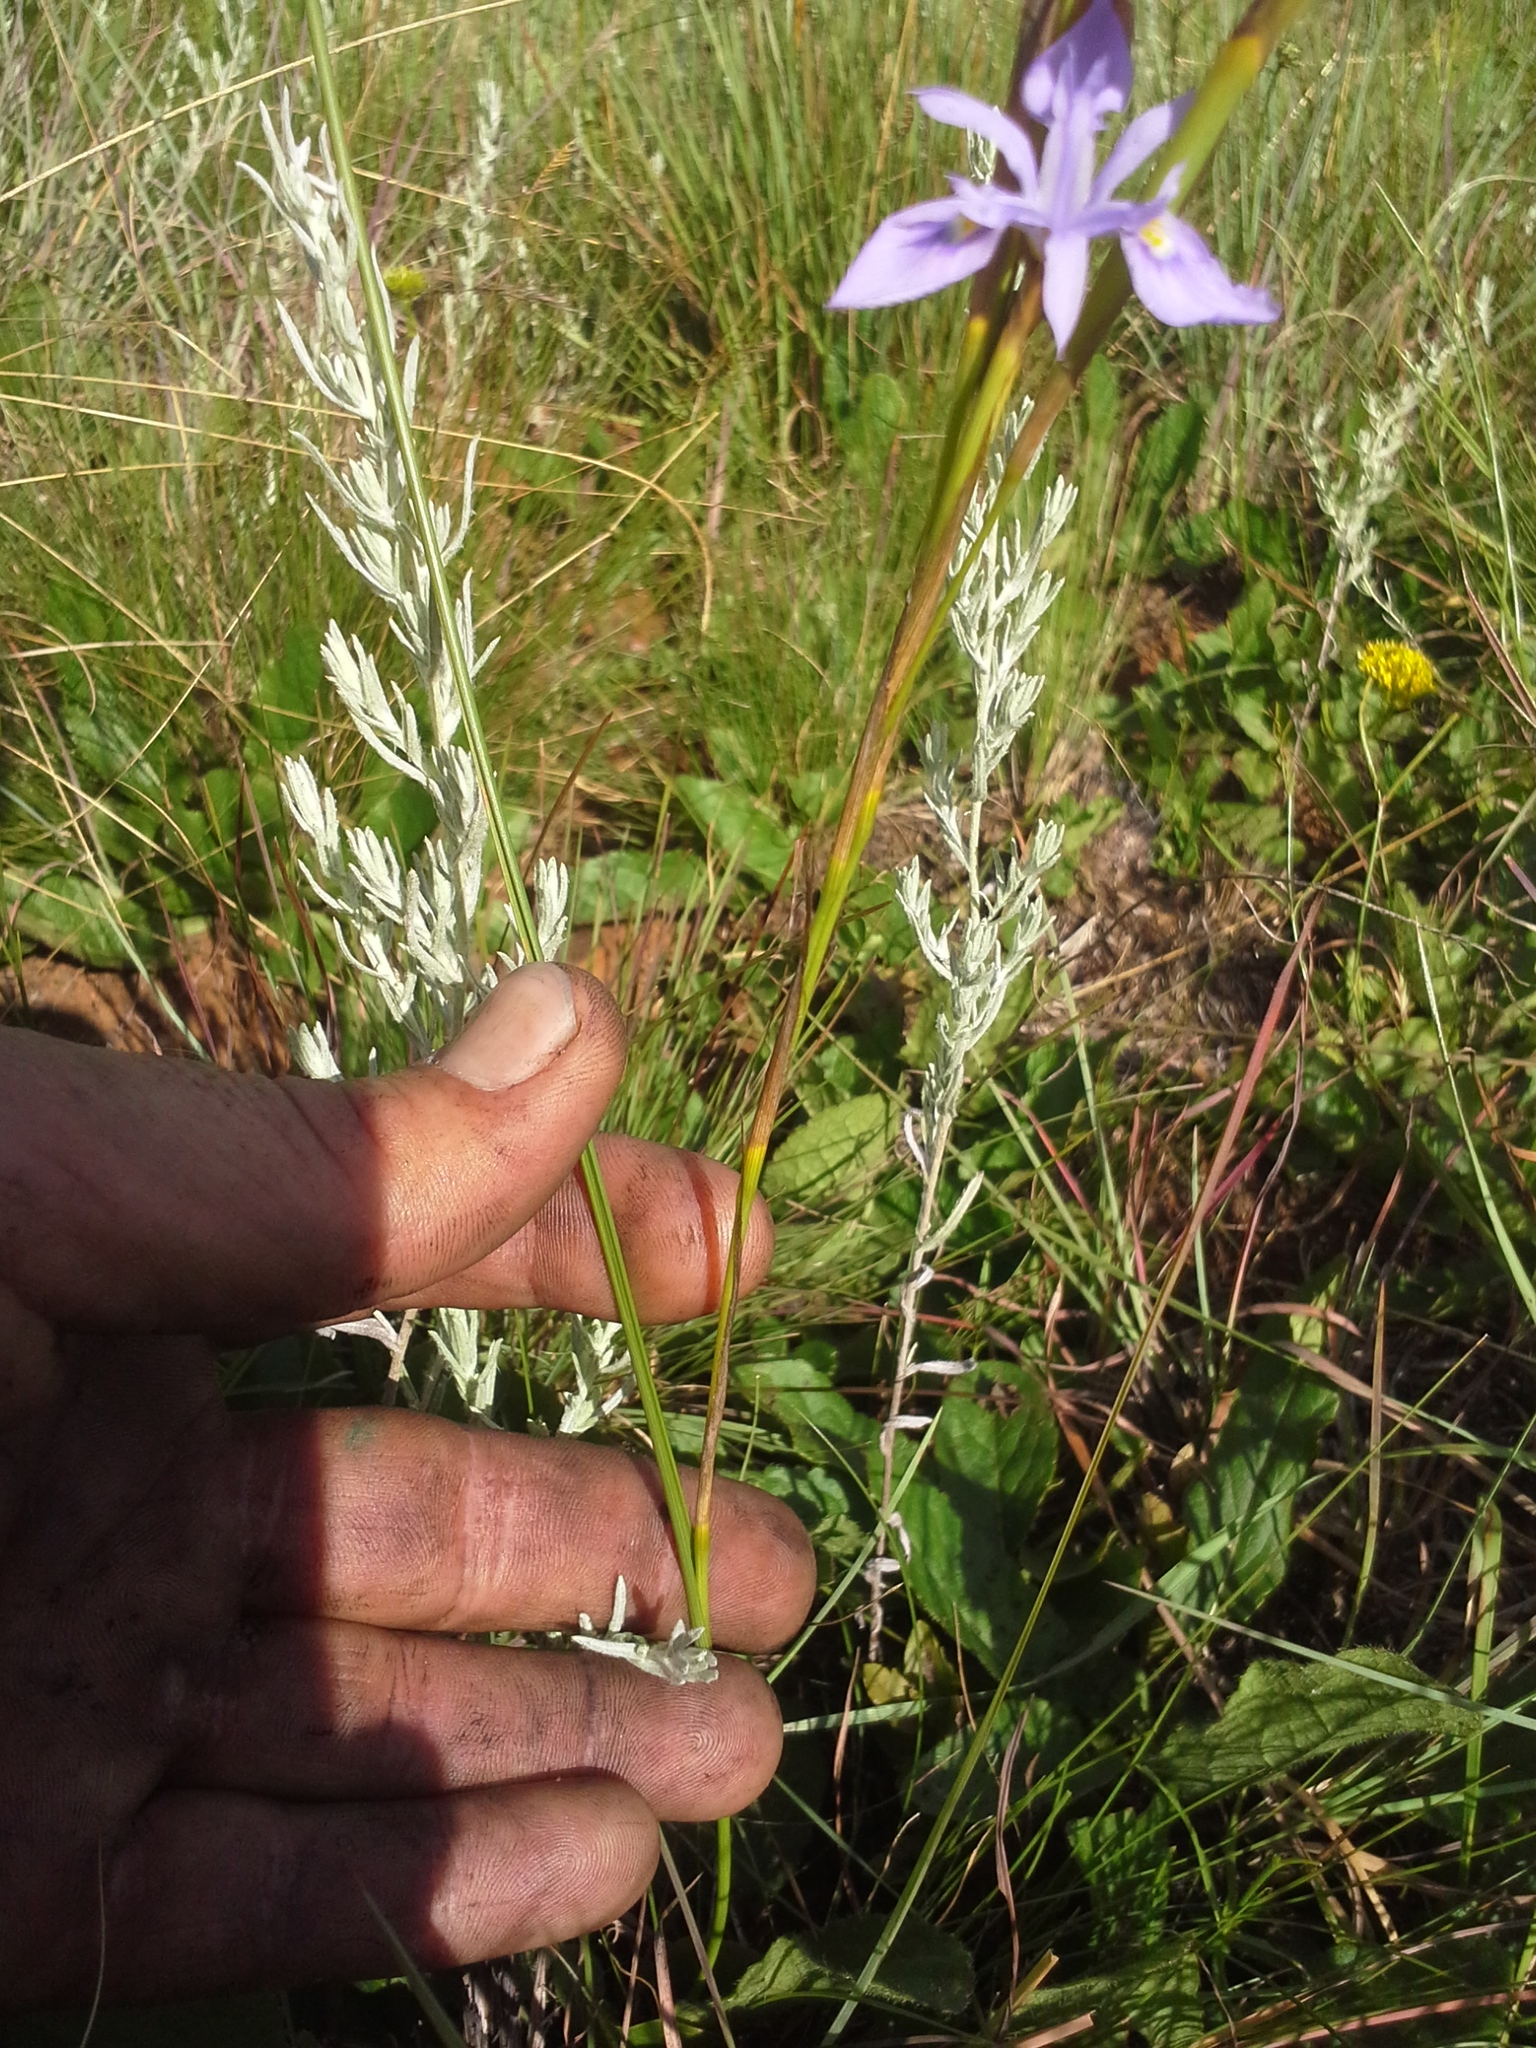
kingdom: Plantae
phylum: Tracheophyta
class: Liliopsida
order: Asparagales
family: Iridaceae
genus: Moraea
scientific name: Moraea natalensis
